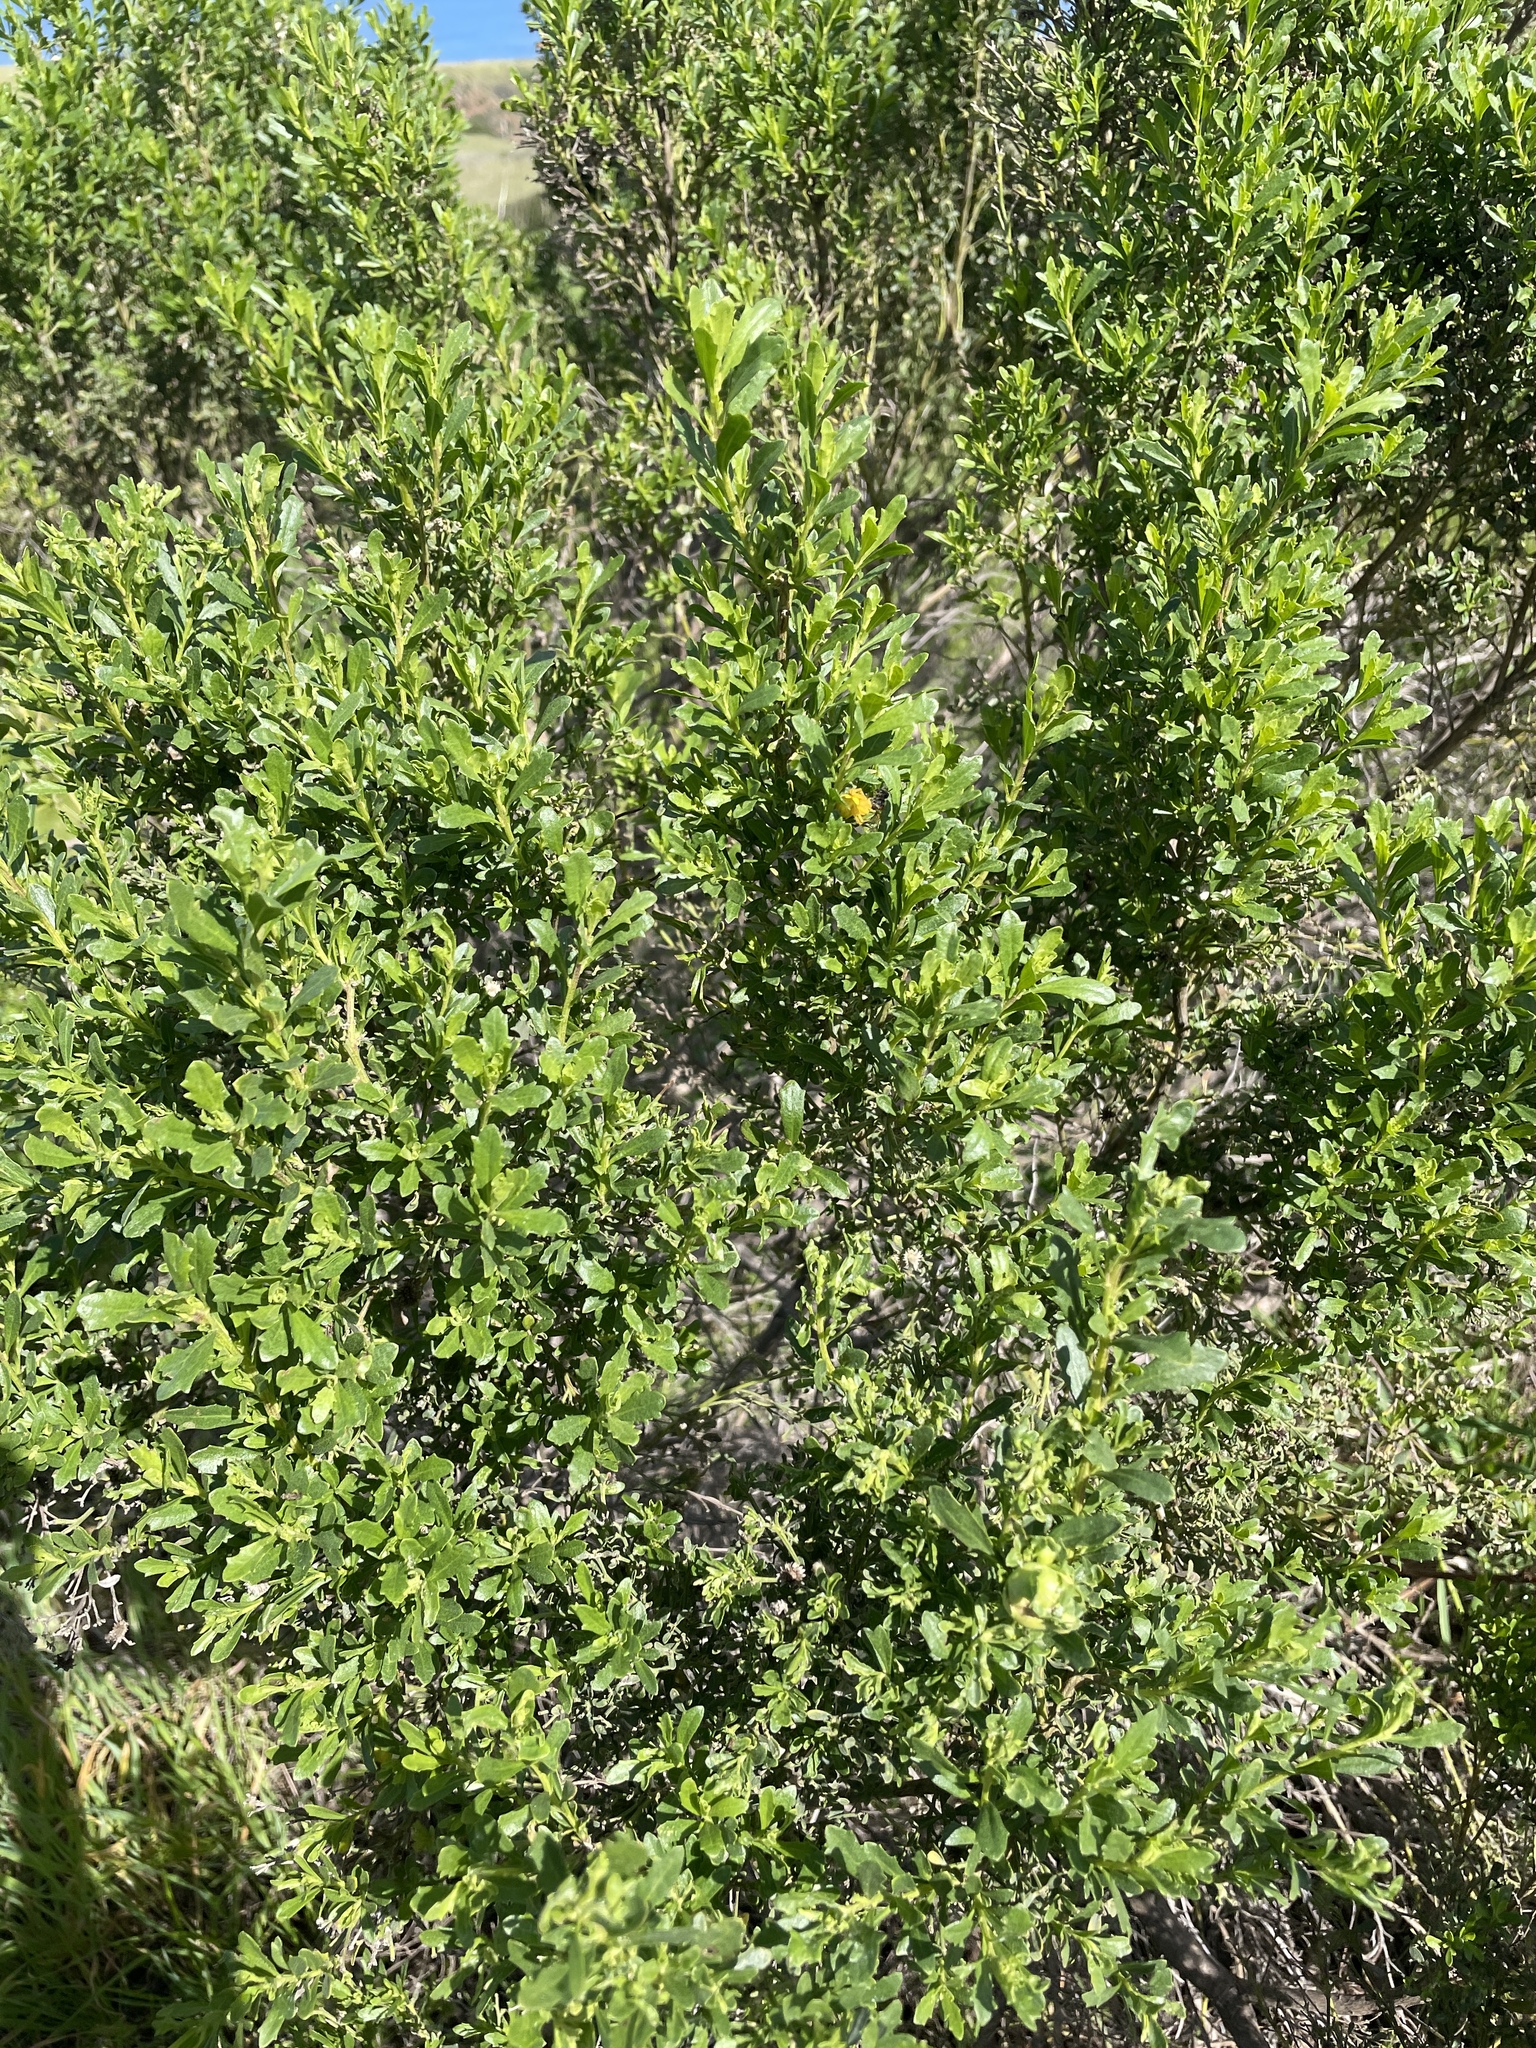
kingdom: Plantae
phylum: Tracheophyta
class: Magnoliopsida
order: Asterales
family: Asteraceae
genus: Baccharis
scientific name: Baccharis pilularis
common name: Coyotebrush
